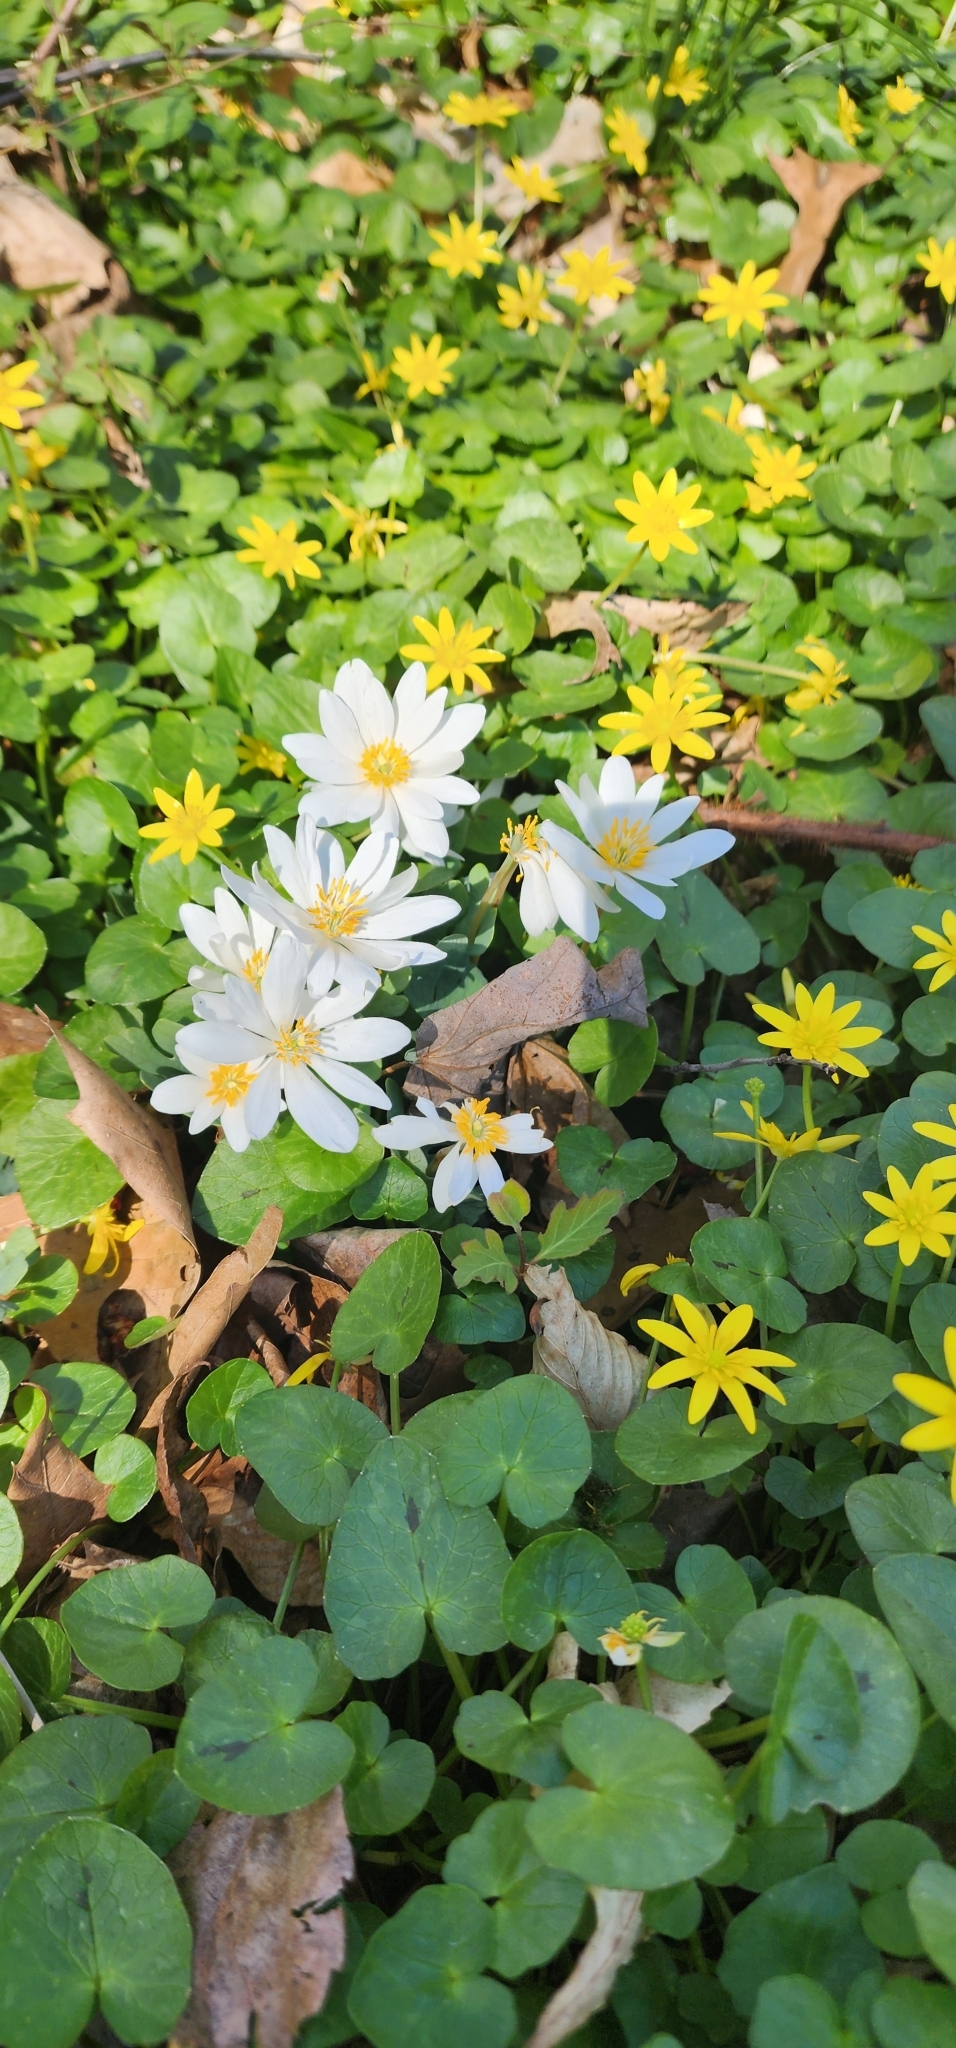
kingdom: Plantae
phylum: Tracheophyta
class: Magnoliopsida
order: Ranunculales
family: Papaveraceae
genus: Sanguinaria
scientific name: Sanguinaria canadensis
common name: Bloodroot
